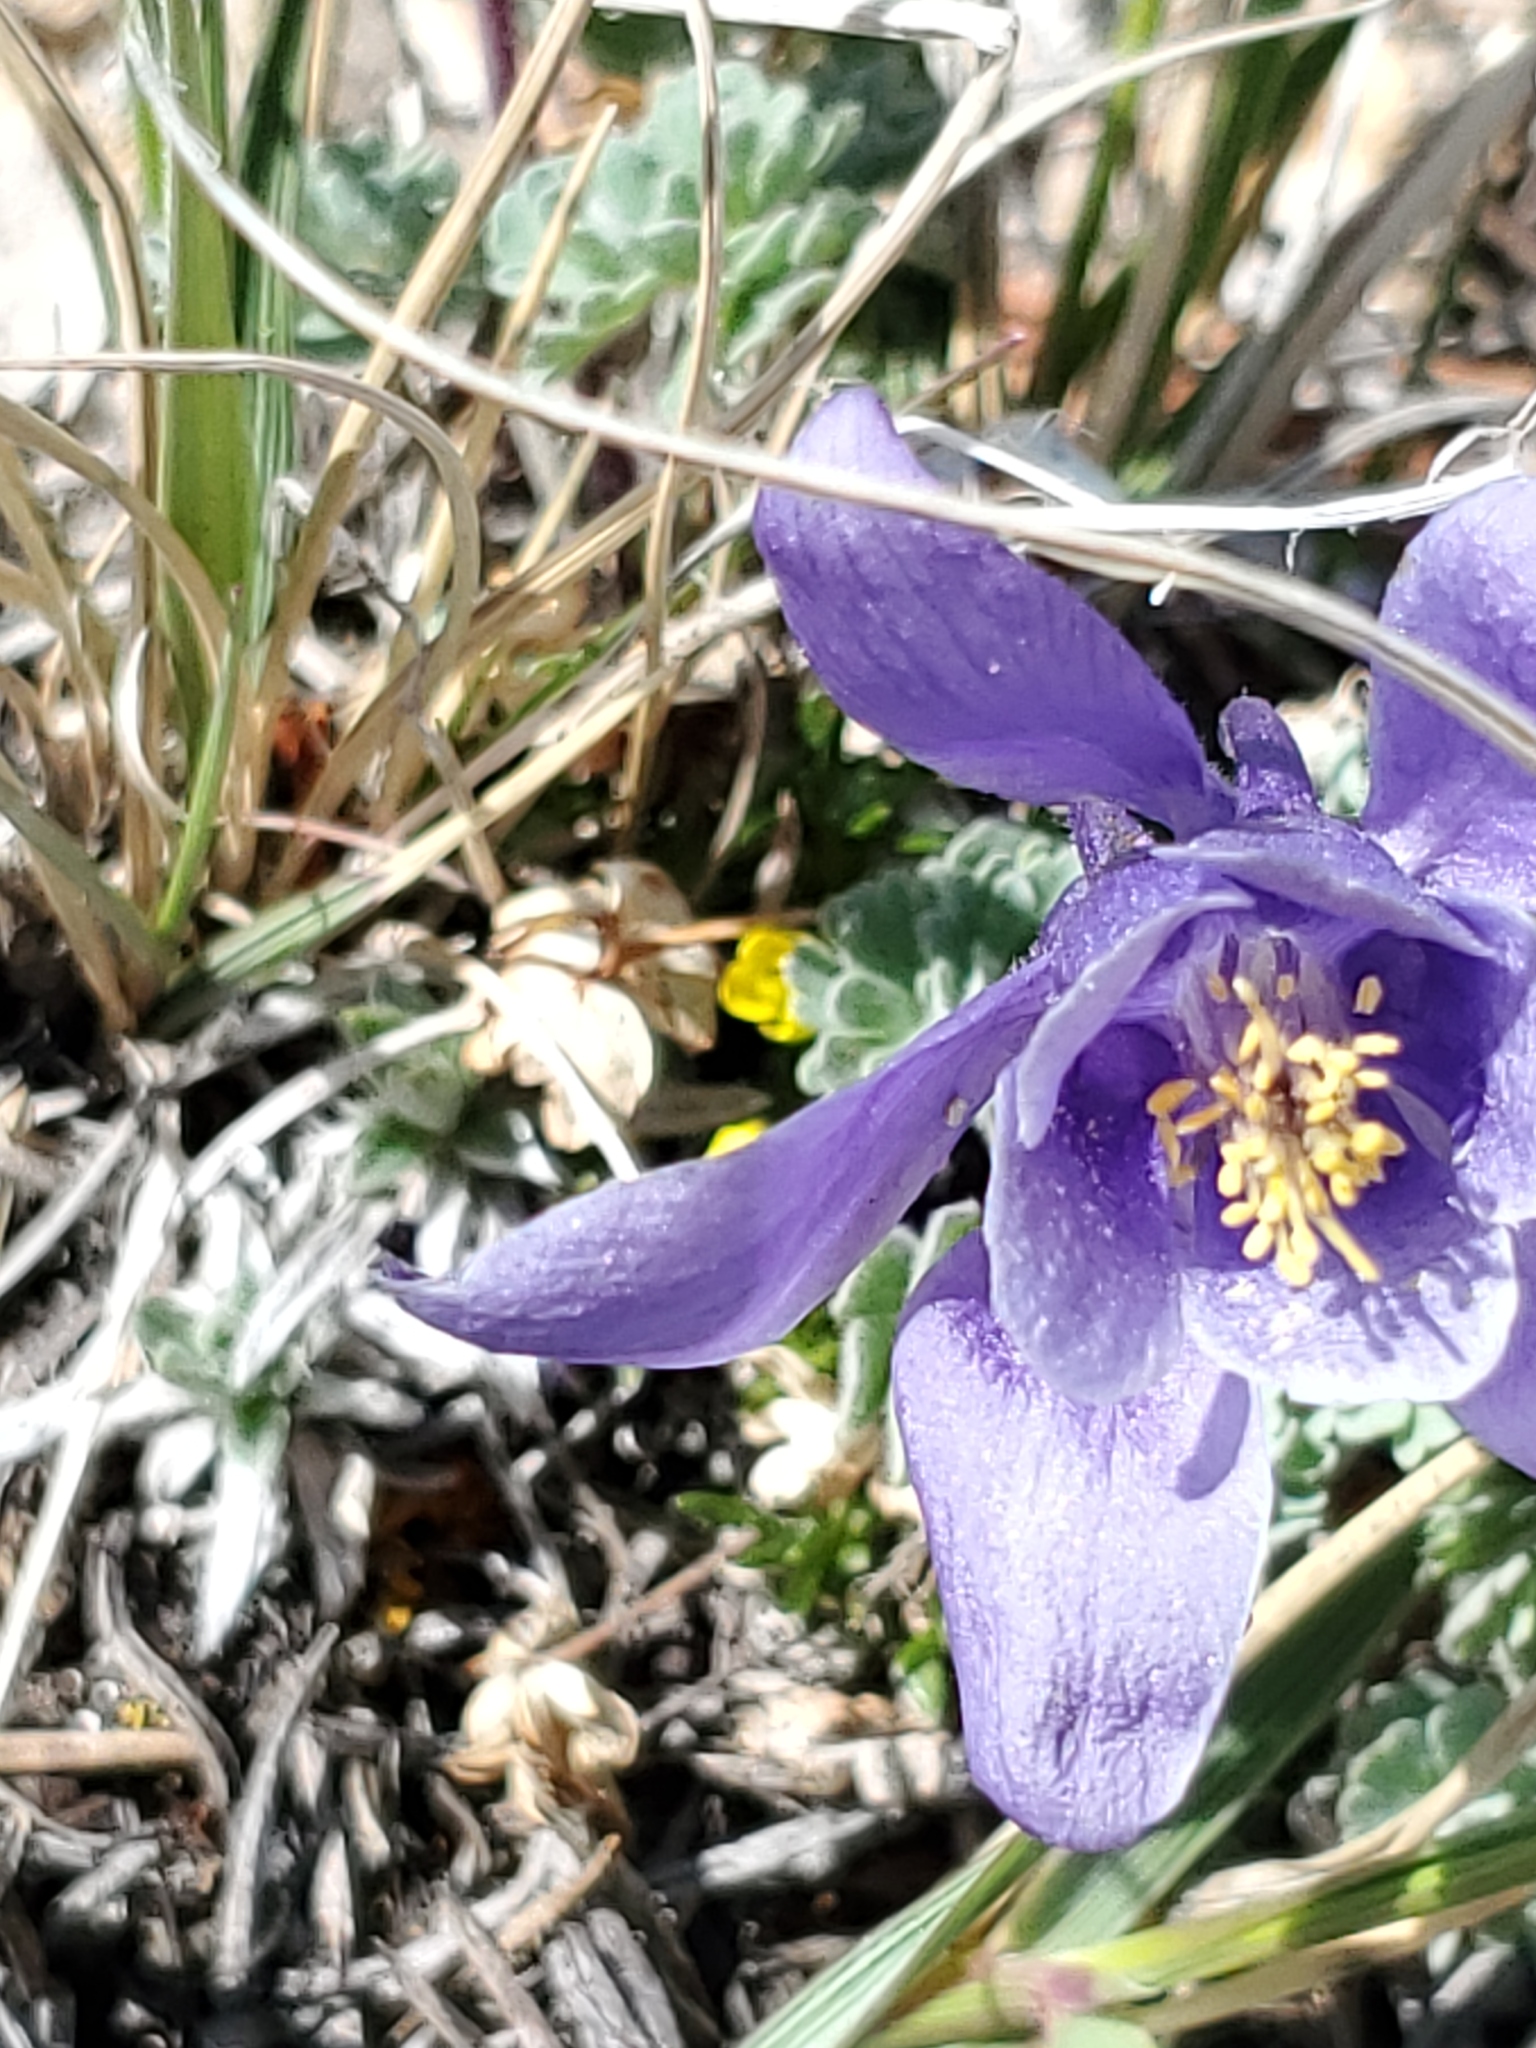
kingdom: Plantae
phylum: Tracheophyta
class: Magnoliopsida
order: Ranunculales
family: Ranunculaceae
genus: Aquilegia
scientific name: Aquilegia jonesii
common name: Jones' columbine
